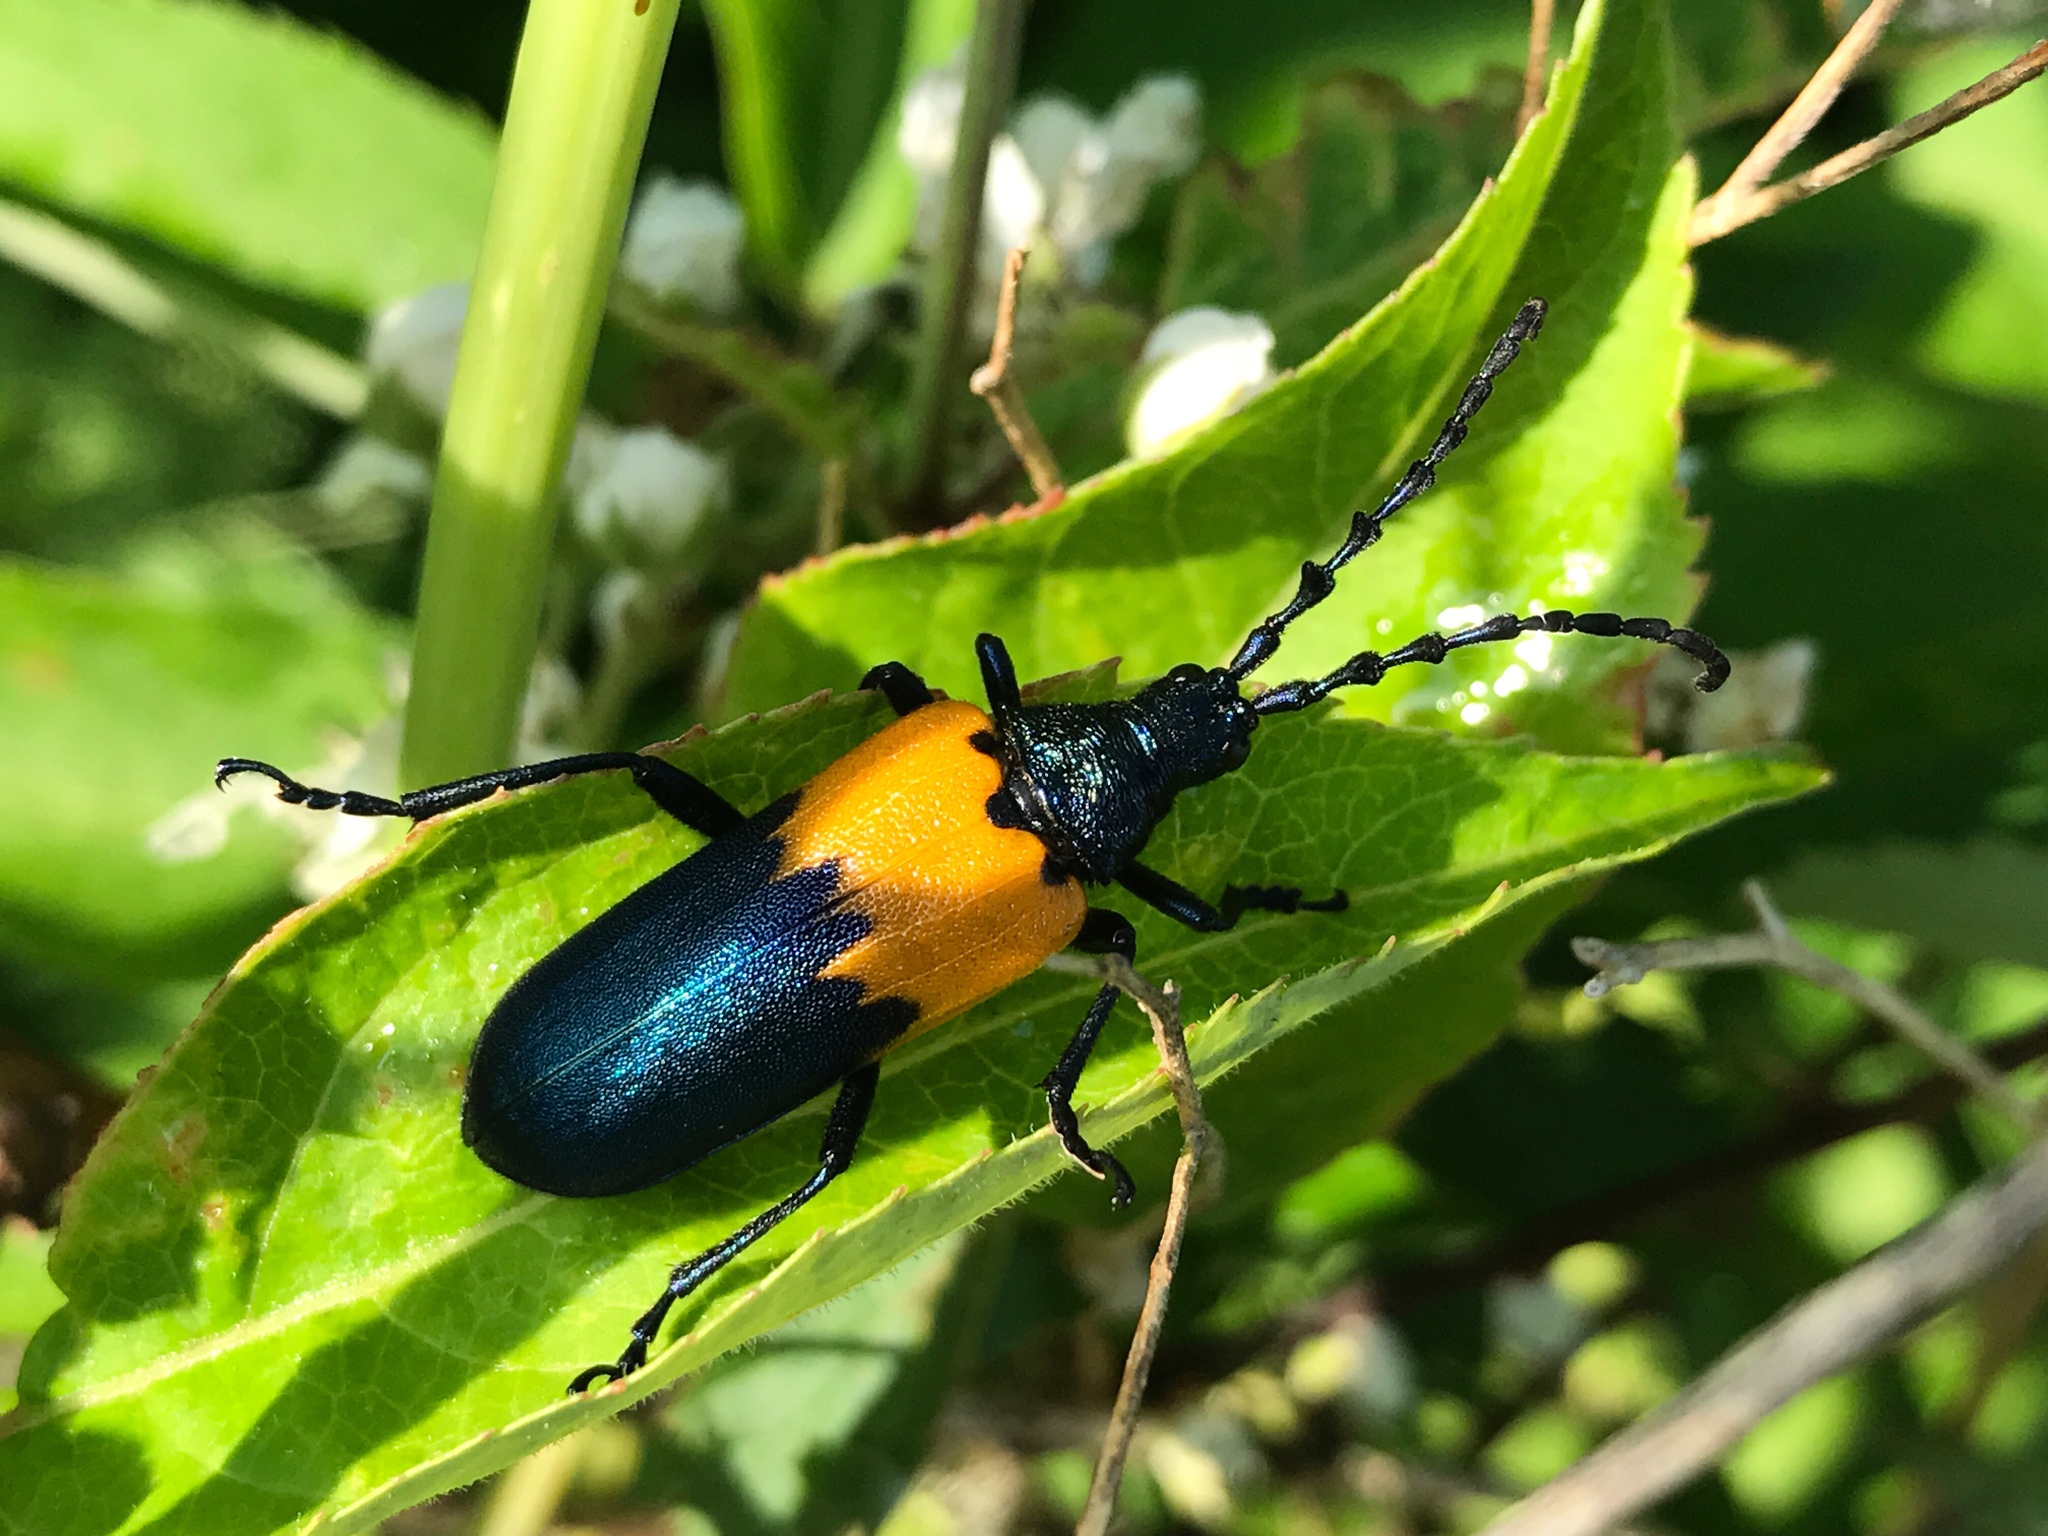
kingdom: Animalia
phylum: Arthropoda
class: Insecta
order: Coleoptera
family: Cerambycidae
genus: Desmocerus
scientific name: Desmocerus palliatus
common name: Eastern elderberry borer
